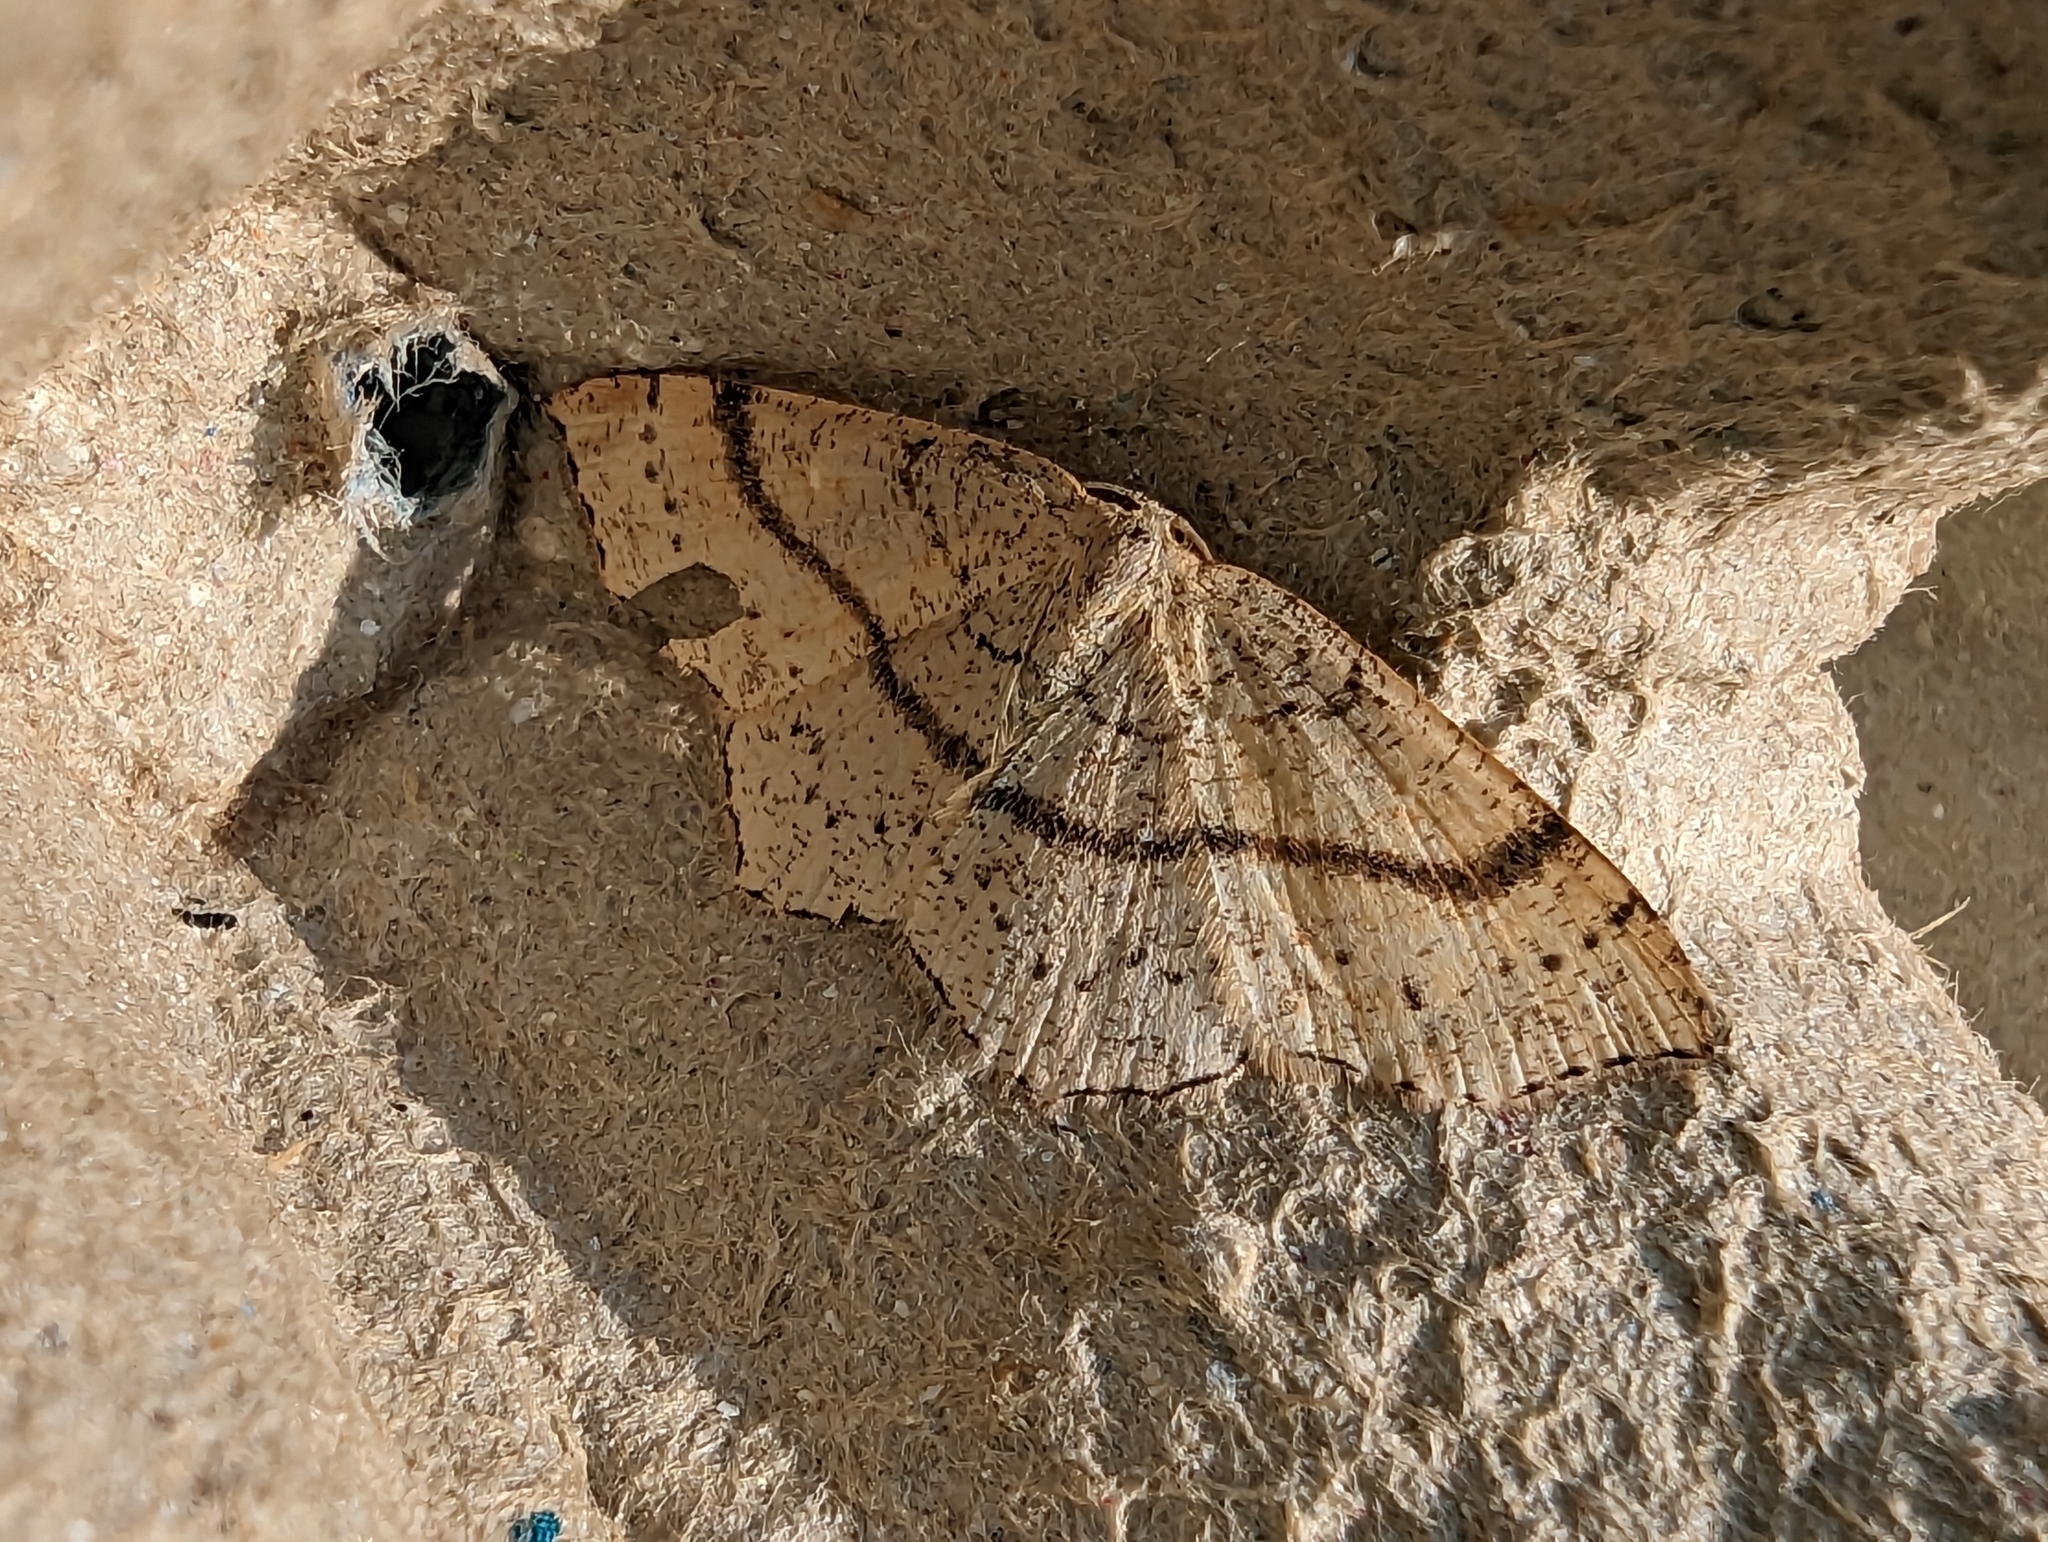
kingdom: Animalia
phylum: Arthropoda
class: Insecta
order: Lepidoptera
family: Geometridae
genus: Cyclophora
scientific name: Cyclophora punctaria
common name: Maiden's blush
